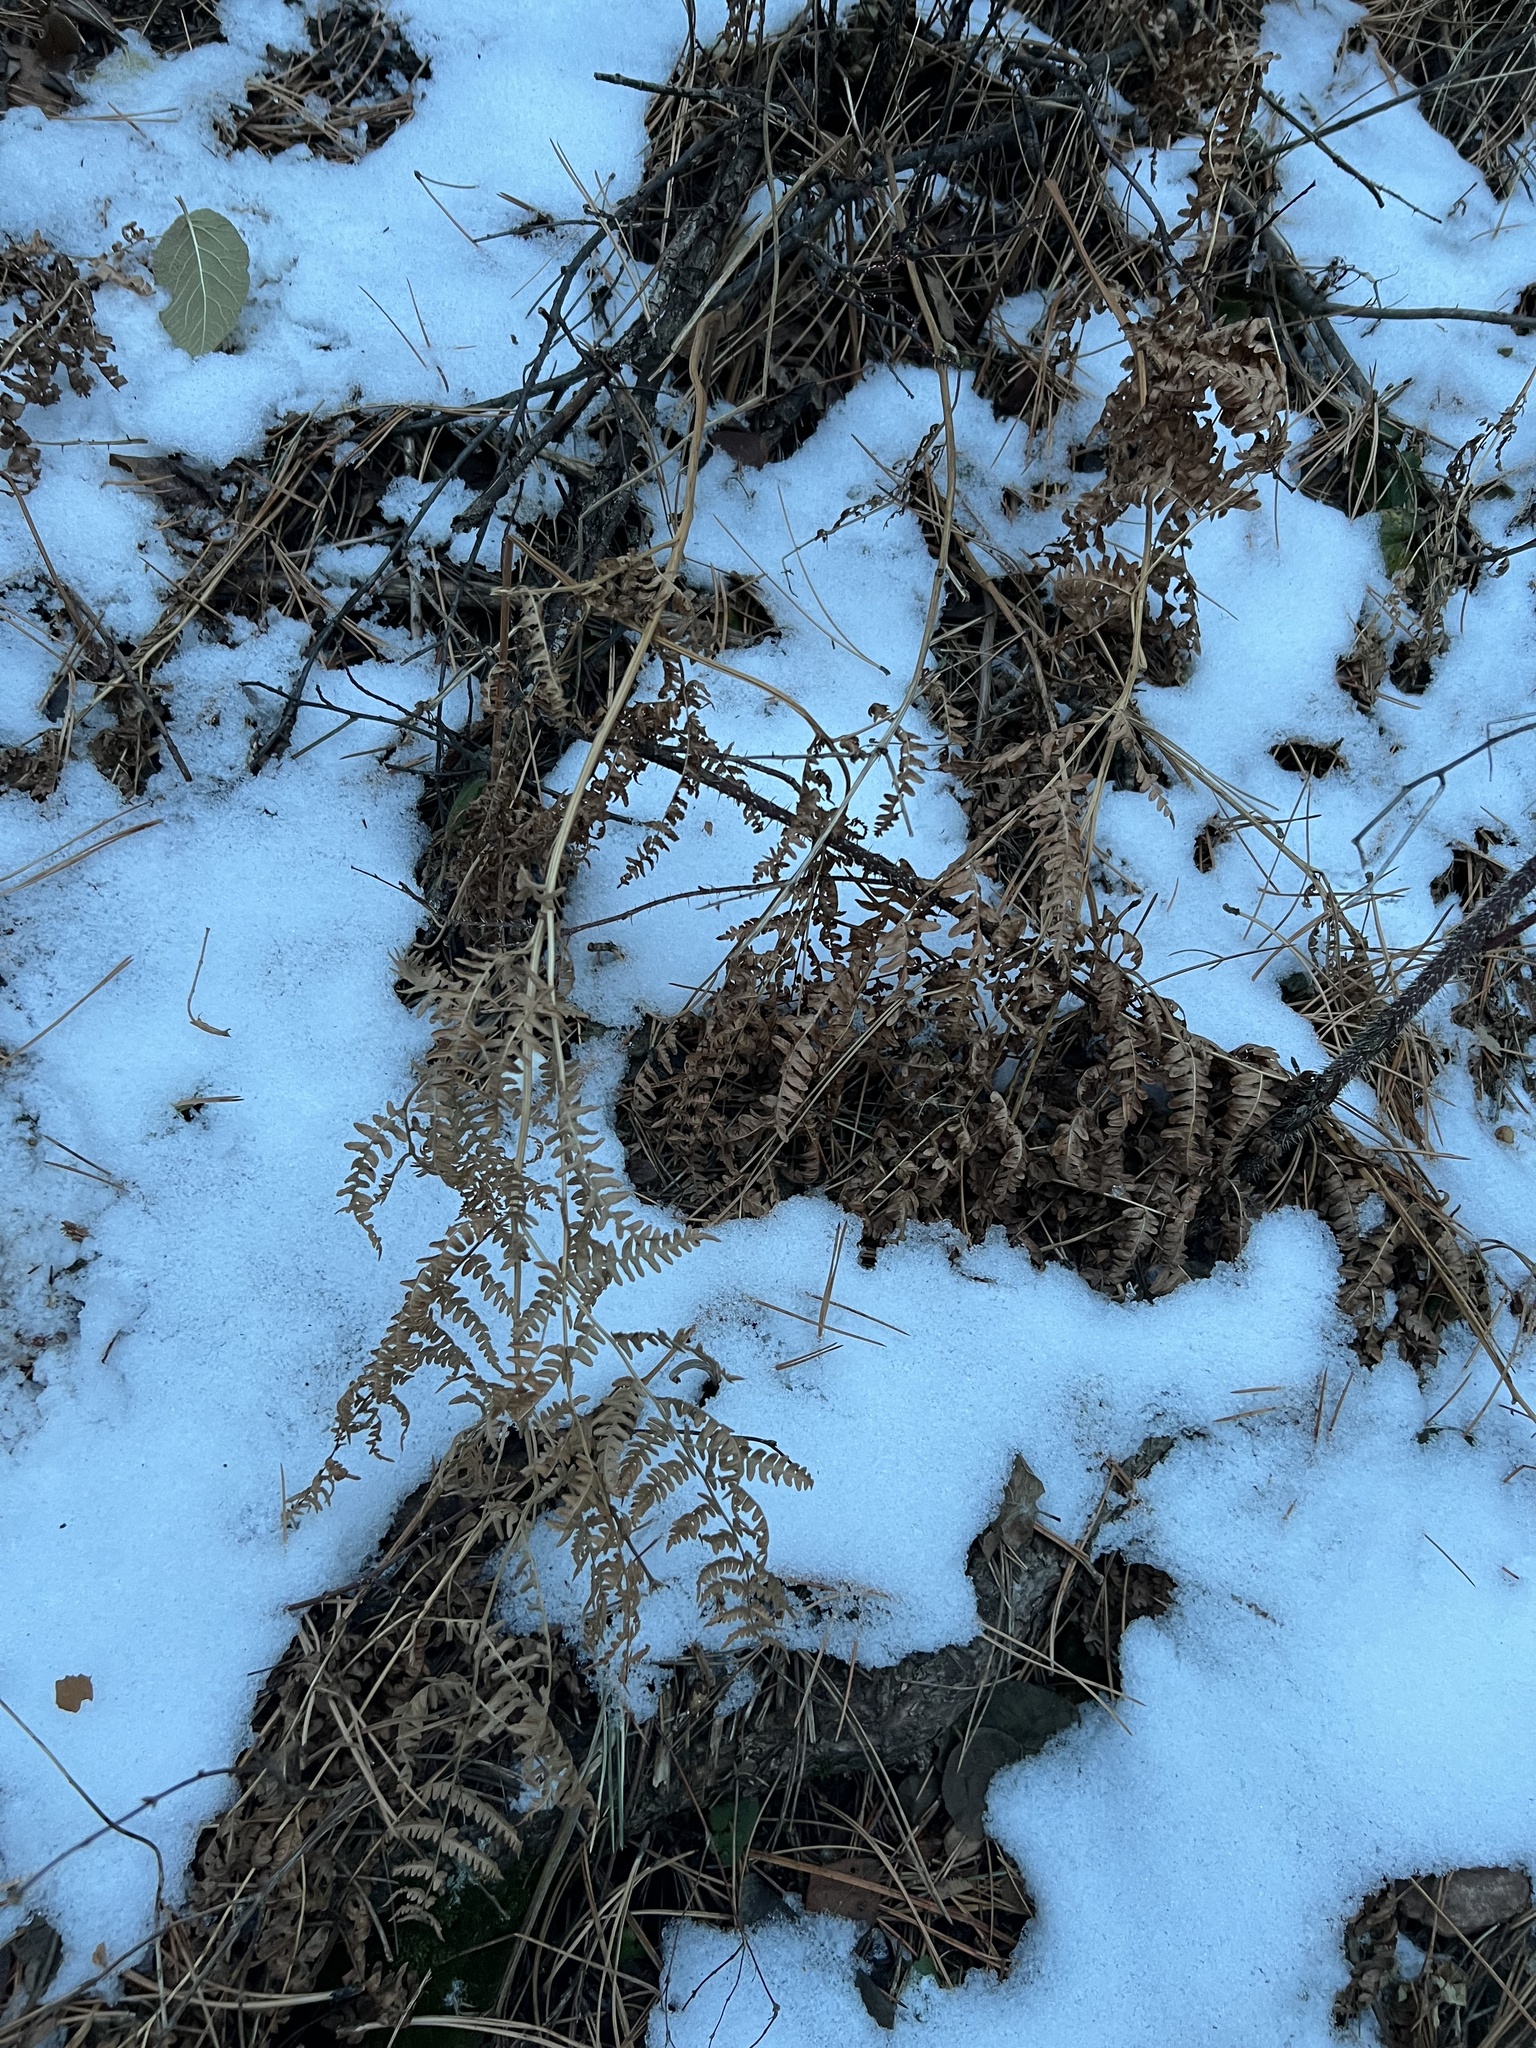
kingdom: Plantae
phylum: Tracheophyta
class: Polypodiopsida
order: Polypodiales
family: Dennstaedtiaceae
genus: Pteridium
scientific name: Pteridium aquilinum
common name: Bracken
